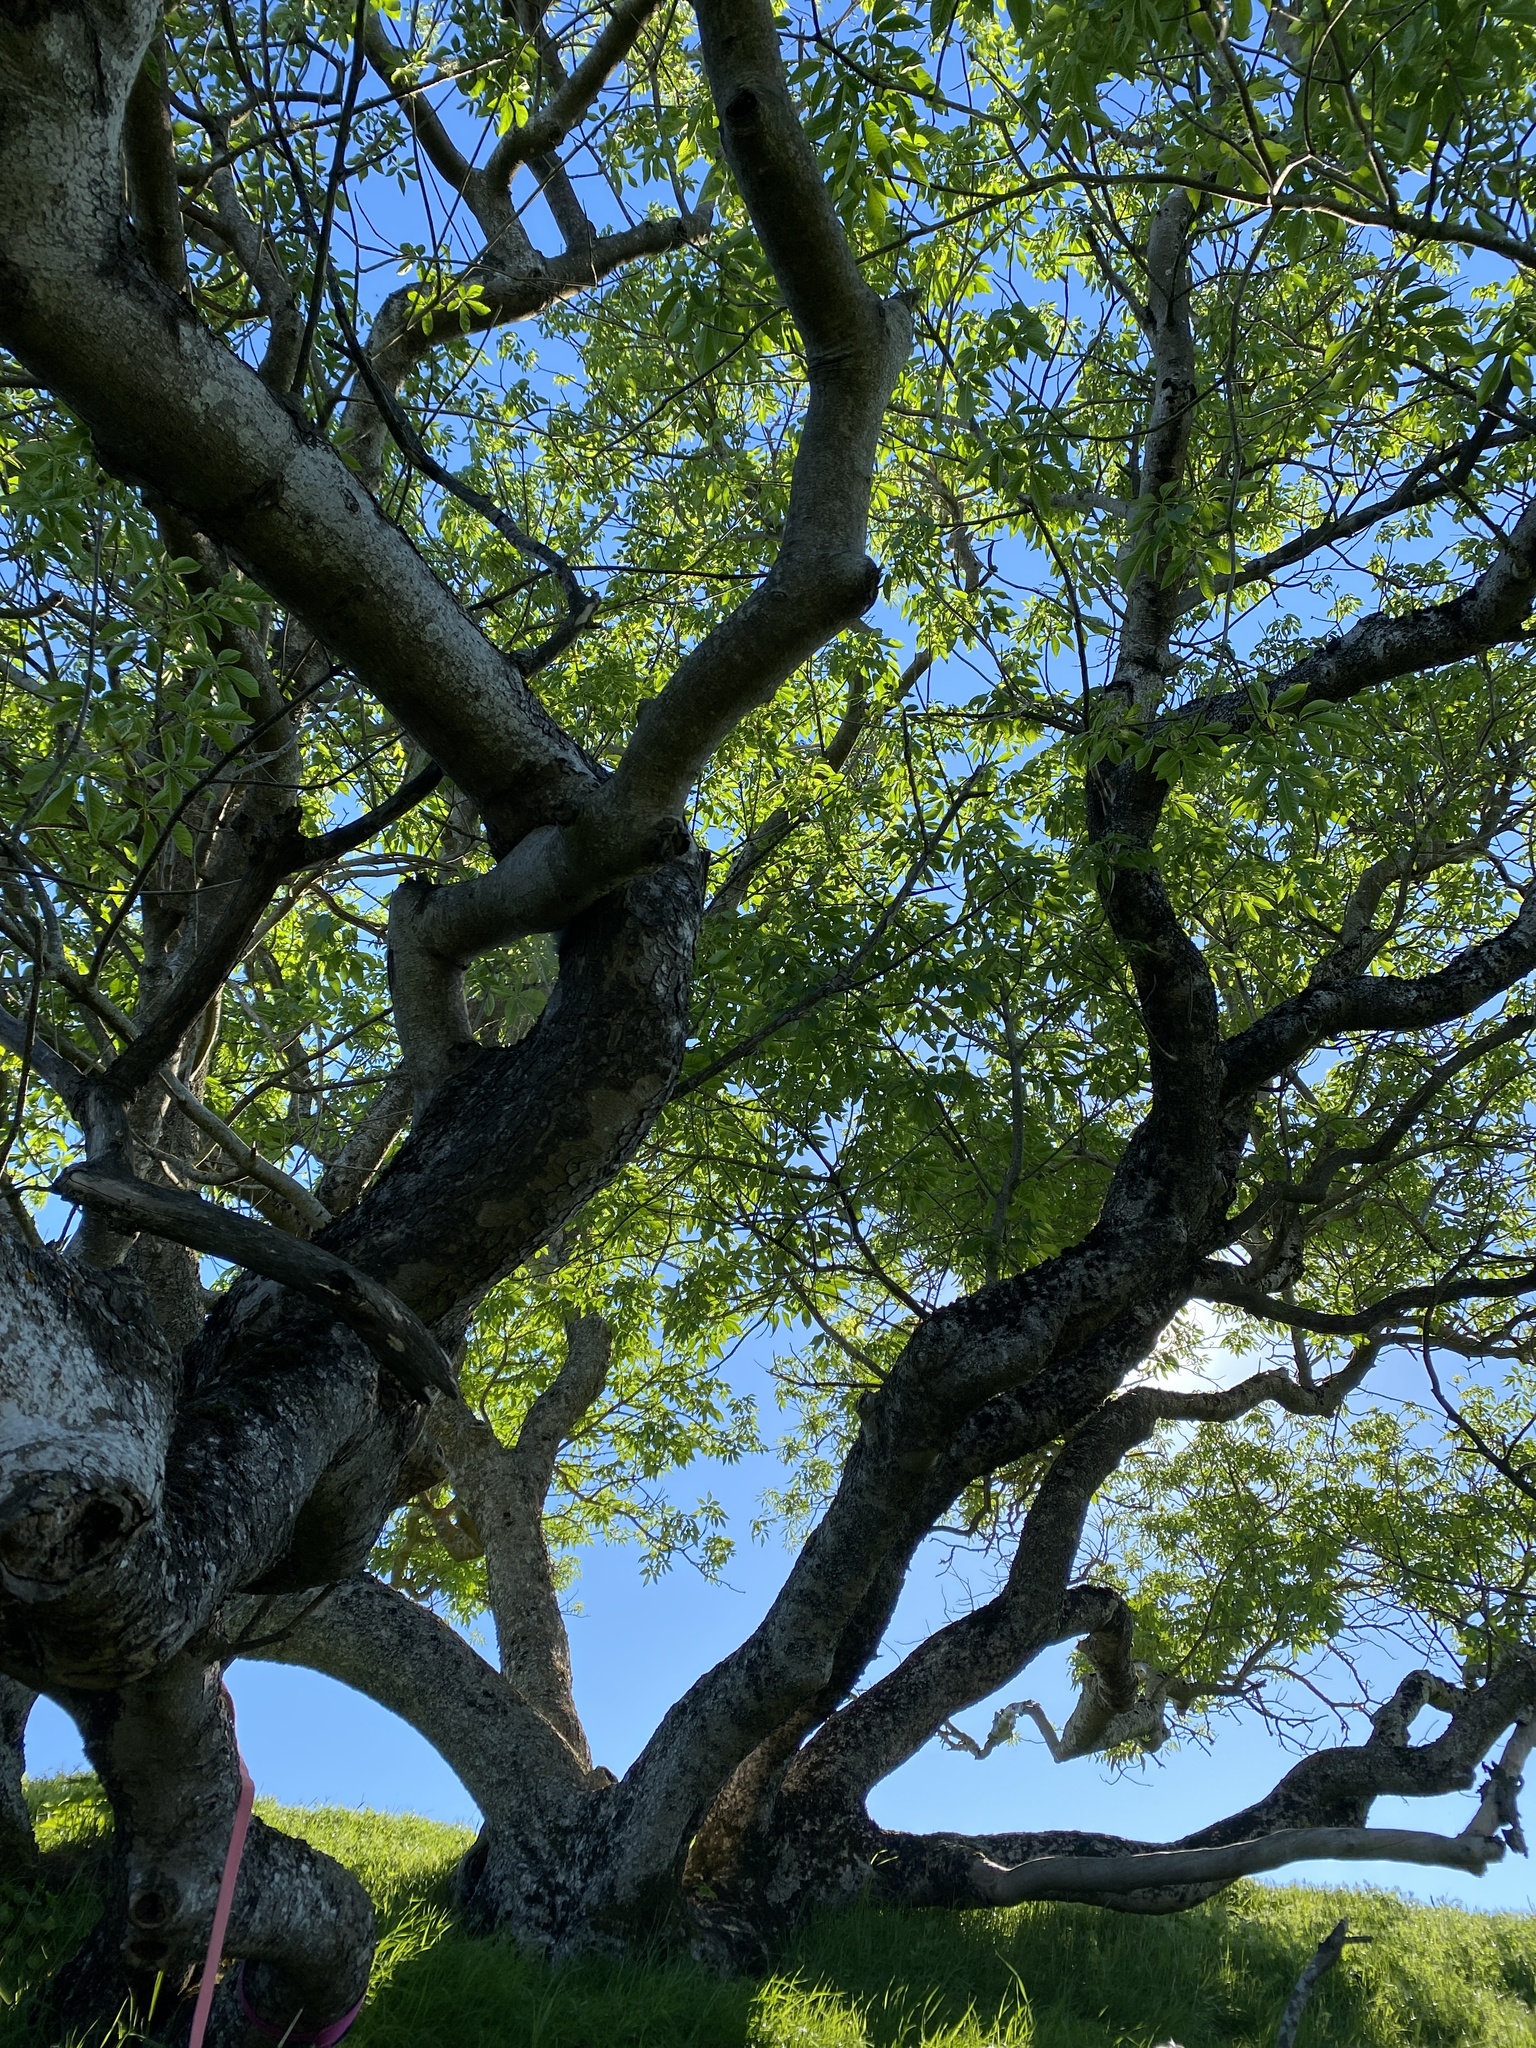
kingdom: Plantae
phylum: Tracheophyta
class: Magnoliopsida
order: Sapindales
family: Sapindaceae
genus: Aesculus
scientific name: Aesculus californica
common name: California buckeye
